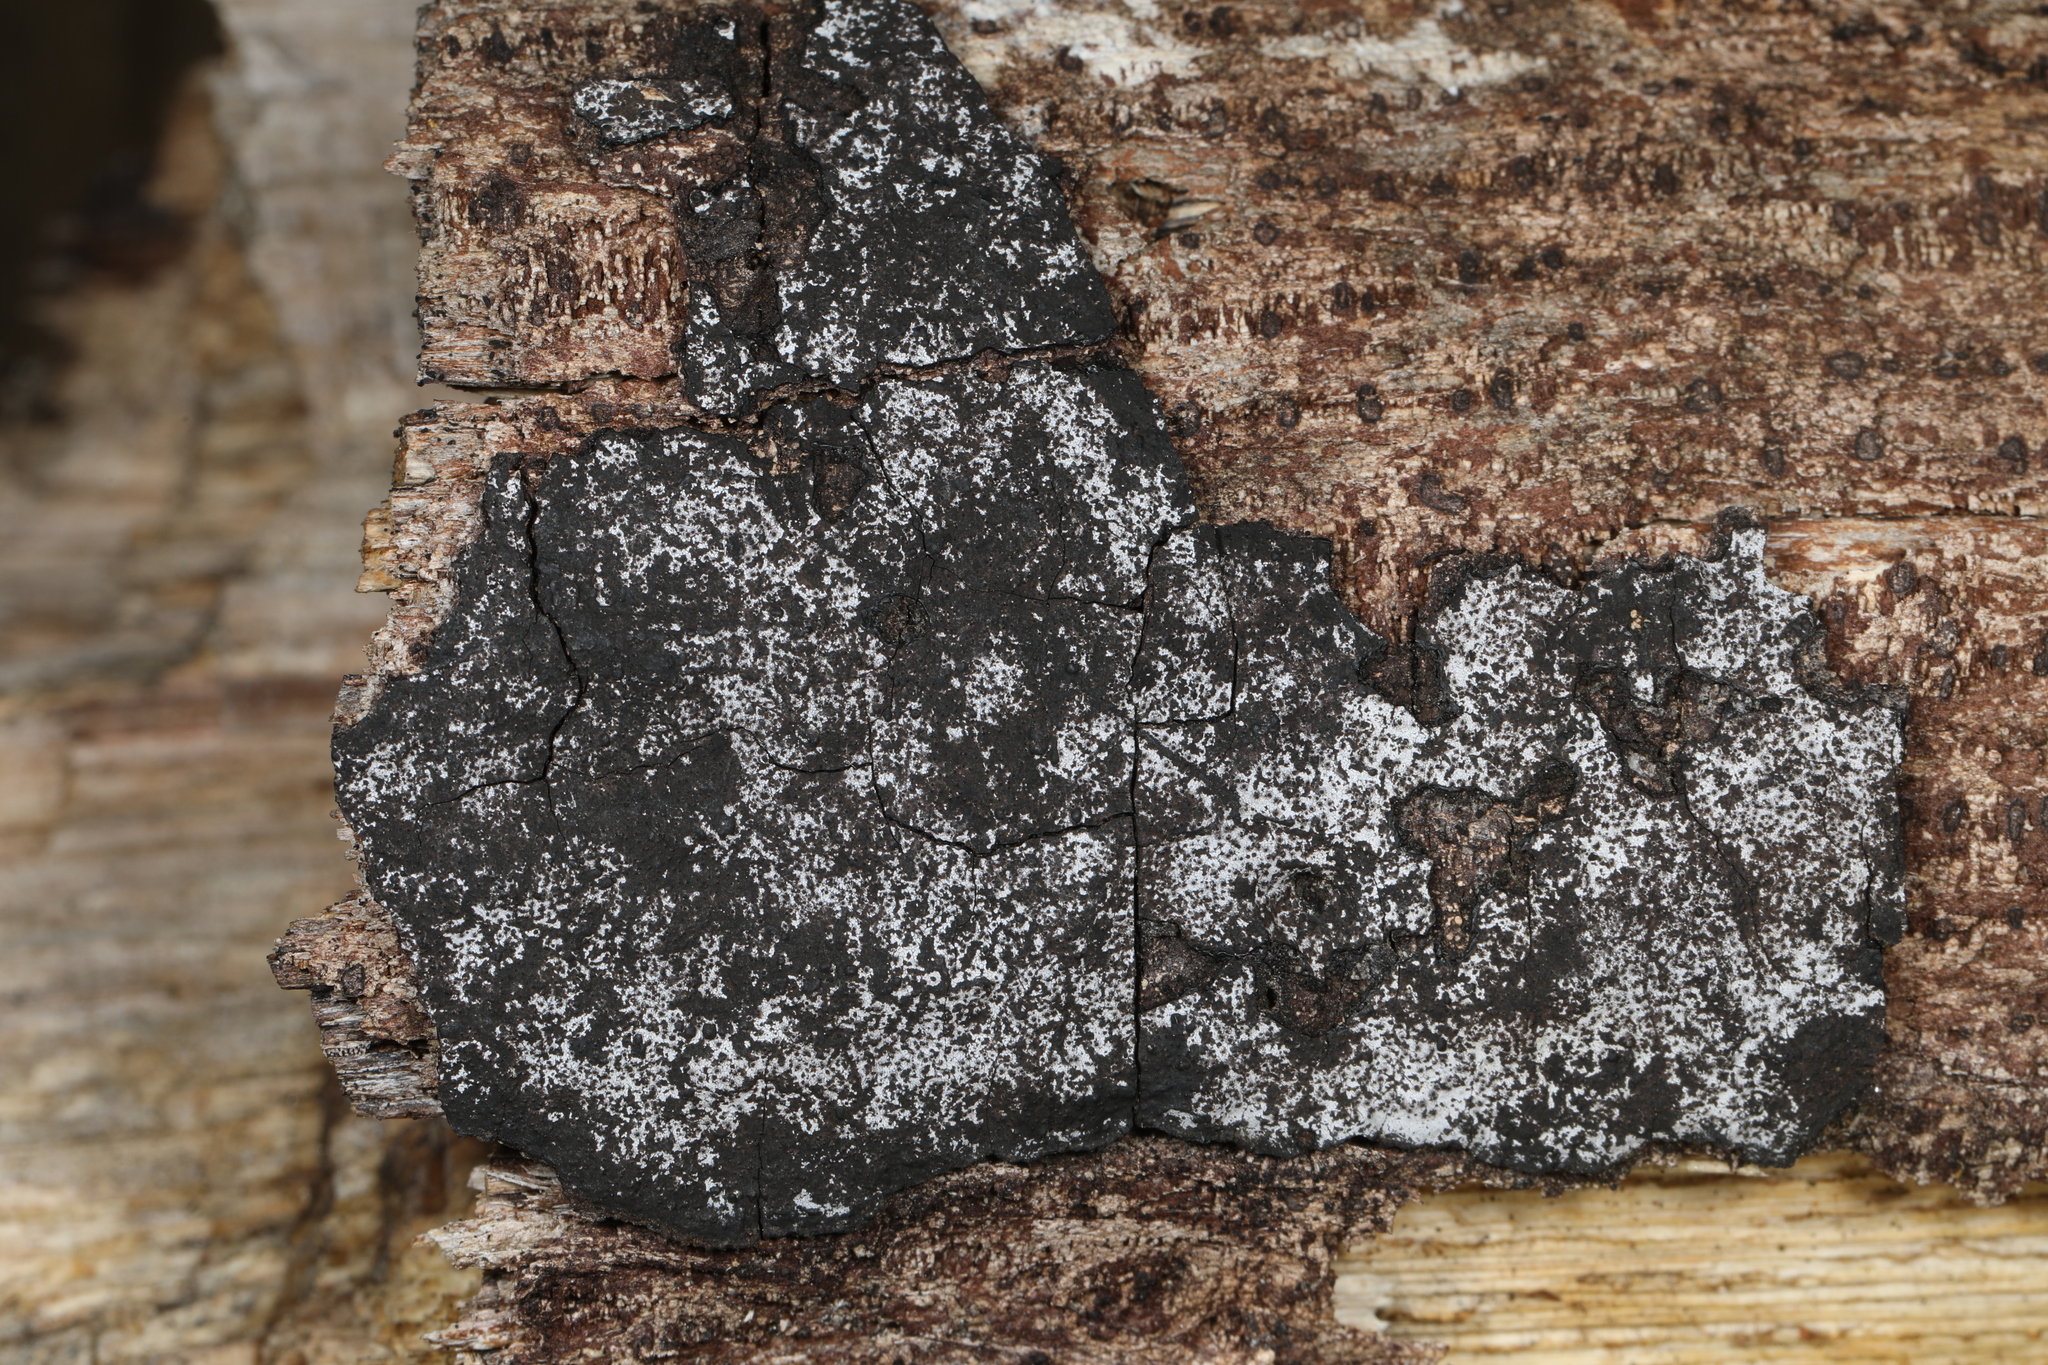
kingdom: Fungi
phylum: Ascomycota
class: Sordariomycetes
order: Xylariales
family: Graphostromataceae
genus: Biscogniauxia
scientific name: Biscogniauxia atropunctata
